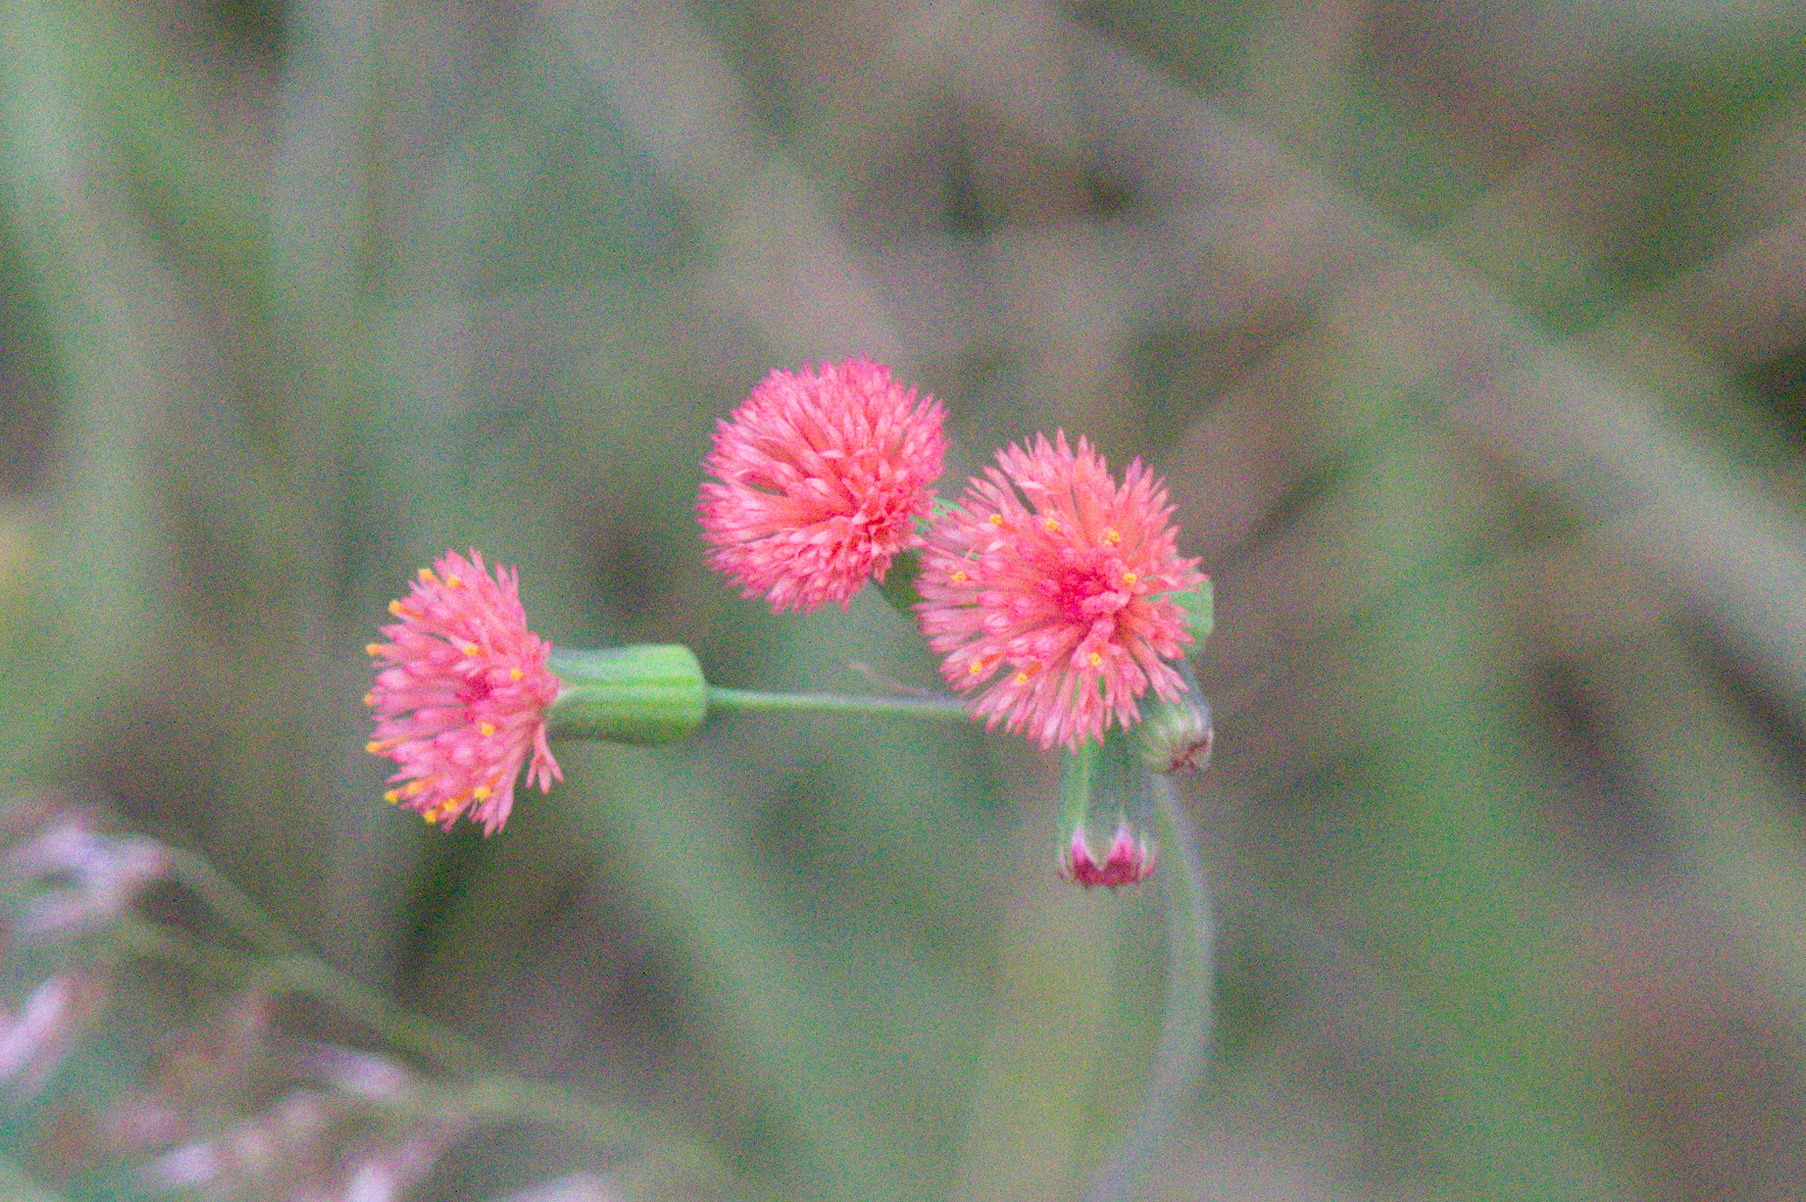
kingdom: Plantae
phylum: Tracheophyta
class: Magnoliopsida
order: Asterales
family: Asteraceae
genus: Emilia
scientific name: Emilia fosbergii
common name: Florida tasselflower
